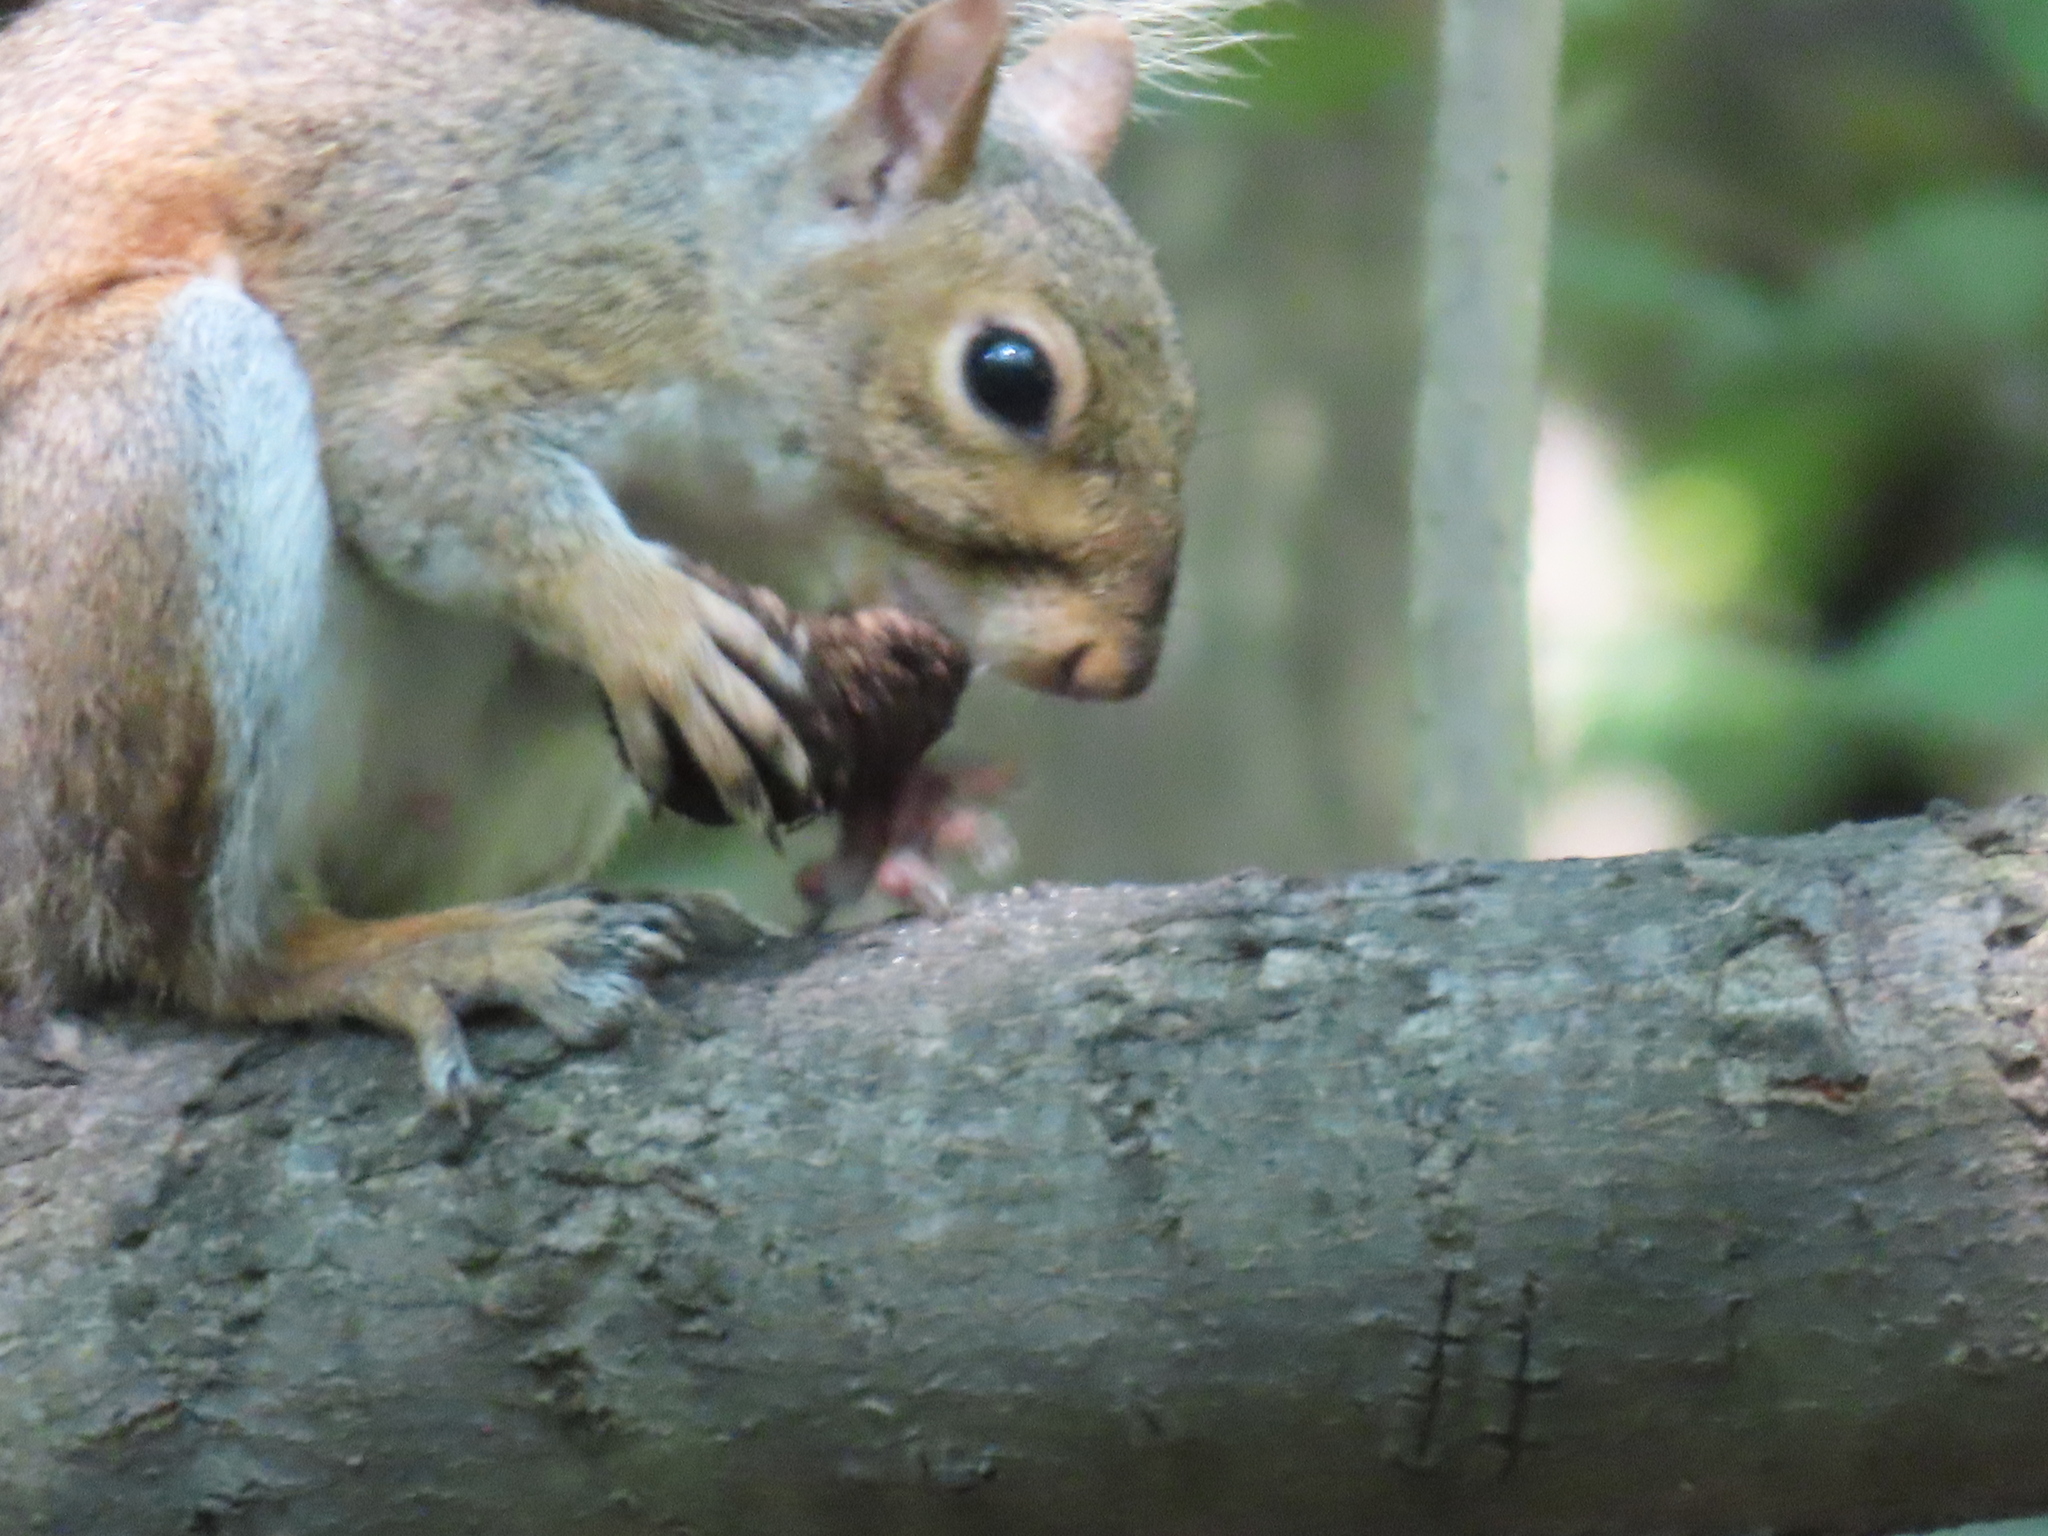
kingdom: Animalia
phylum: Chordata
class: Mammalia
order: Rodentia
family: Sciuridae
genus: Sciurus
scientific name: Sciurus carolinensis
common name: Eastern gray squirrel
